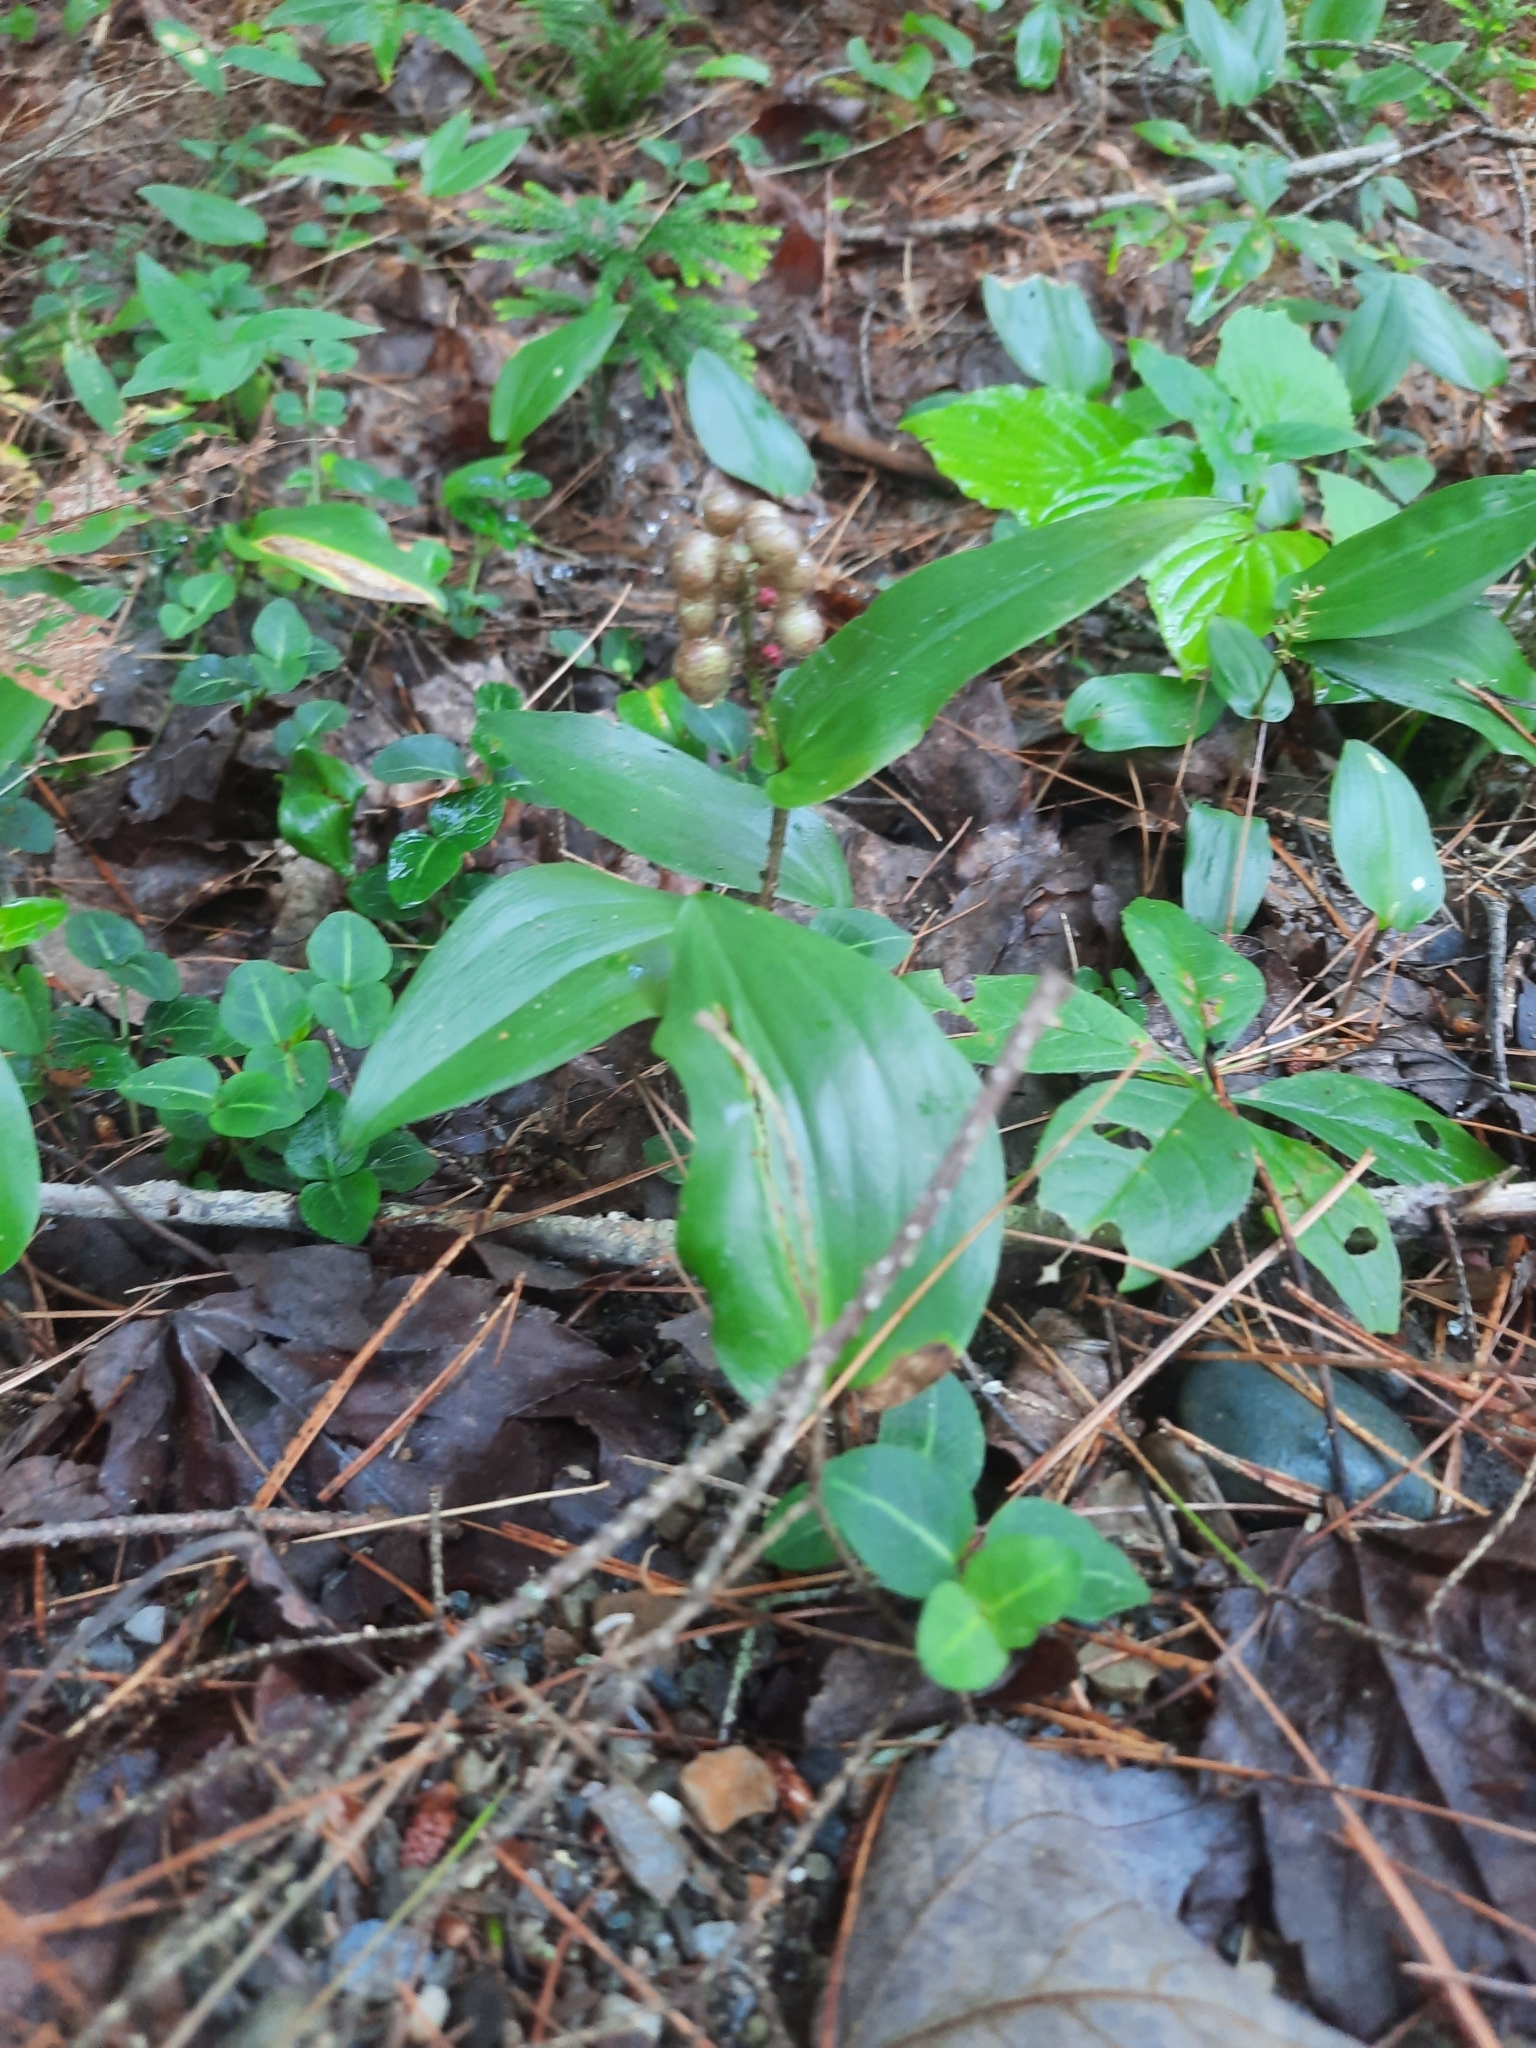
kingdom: Plantae
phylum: Tracheophyta
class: Liliopsida
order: Asparagales
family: Asparagaceae
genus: Maianthemum
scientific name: Maianthemum canadense
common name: False lily-of-the-valley
